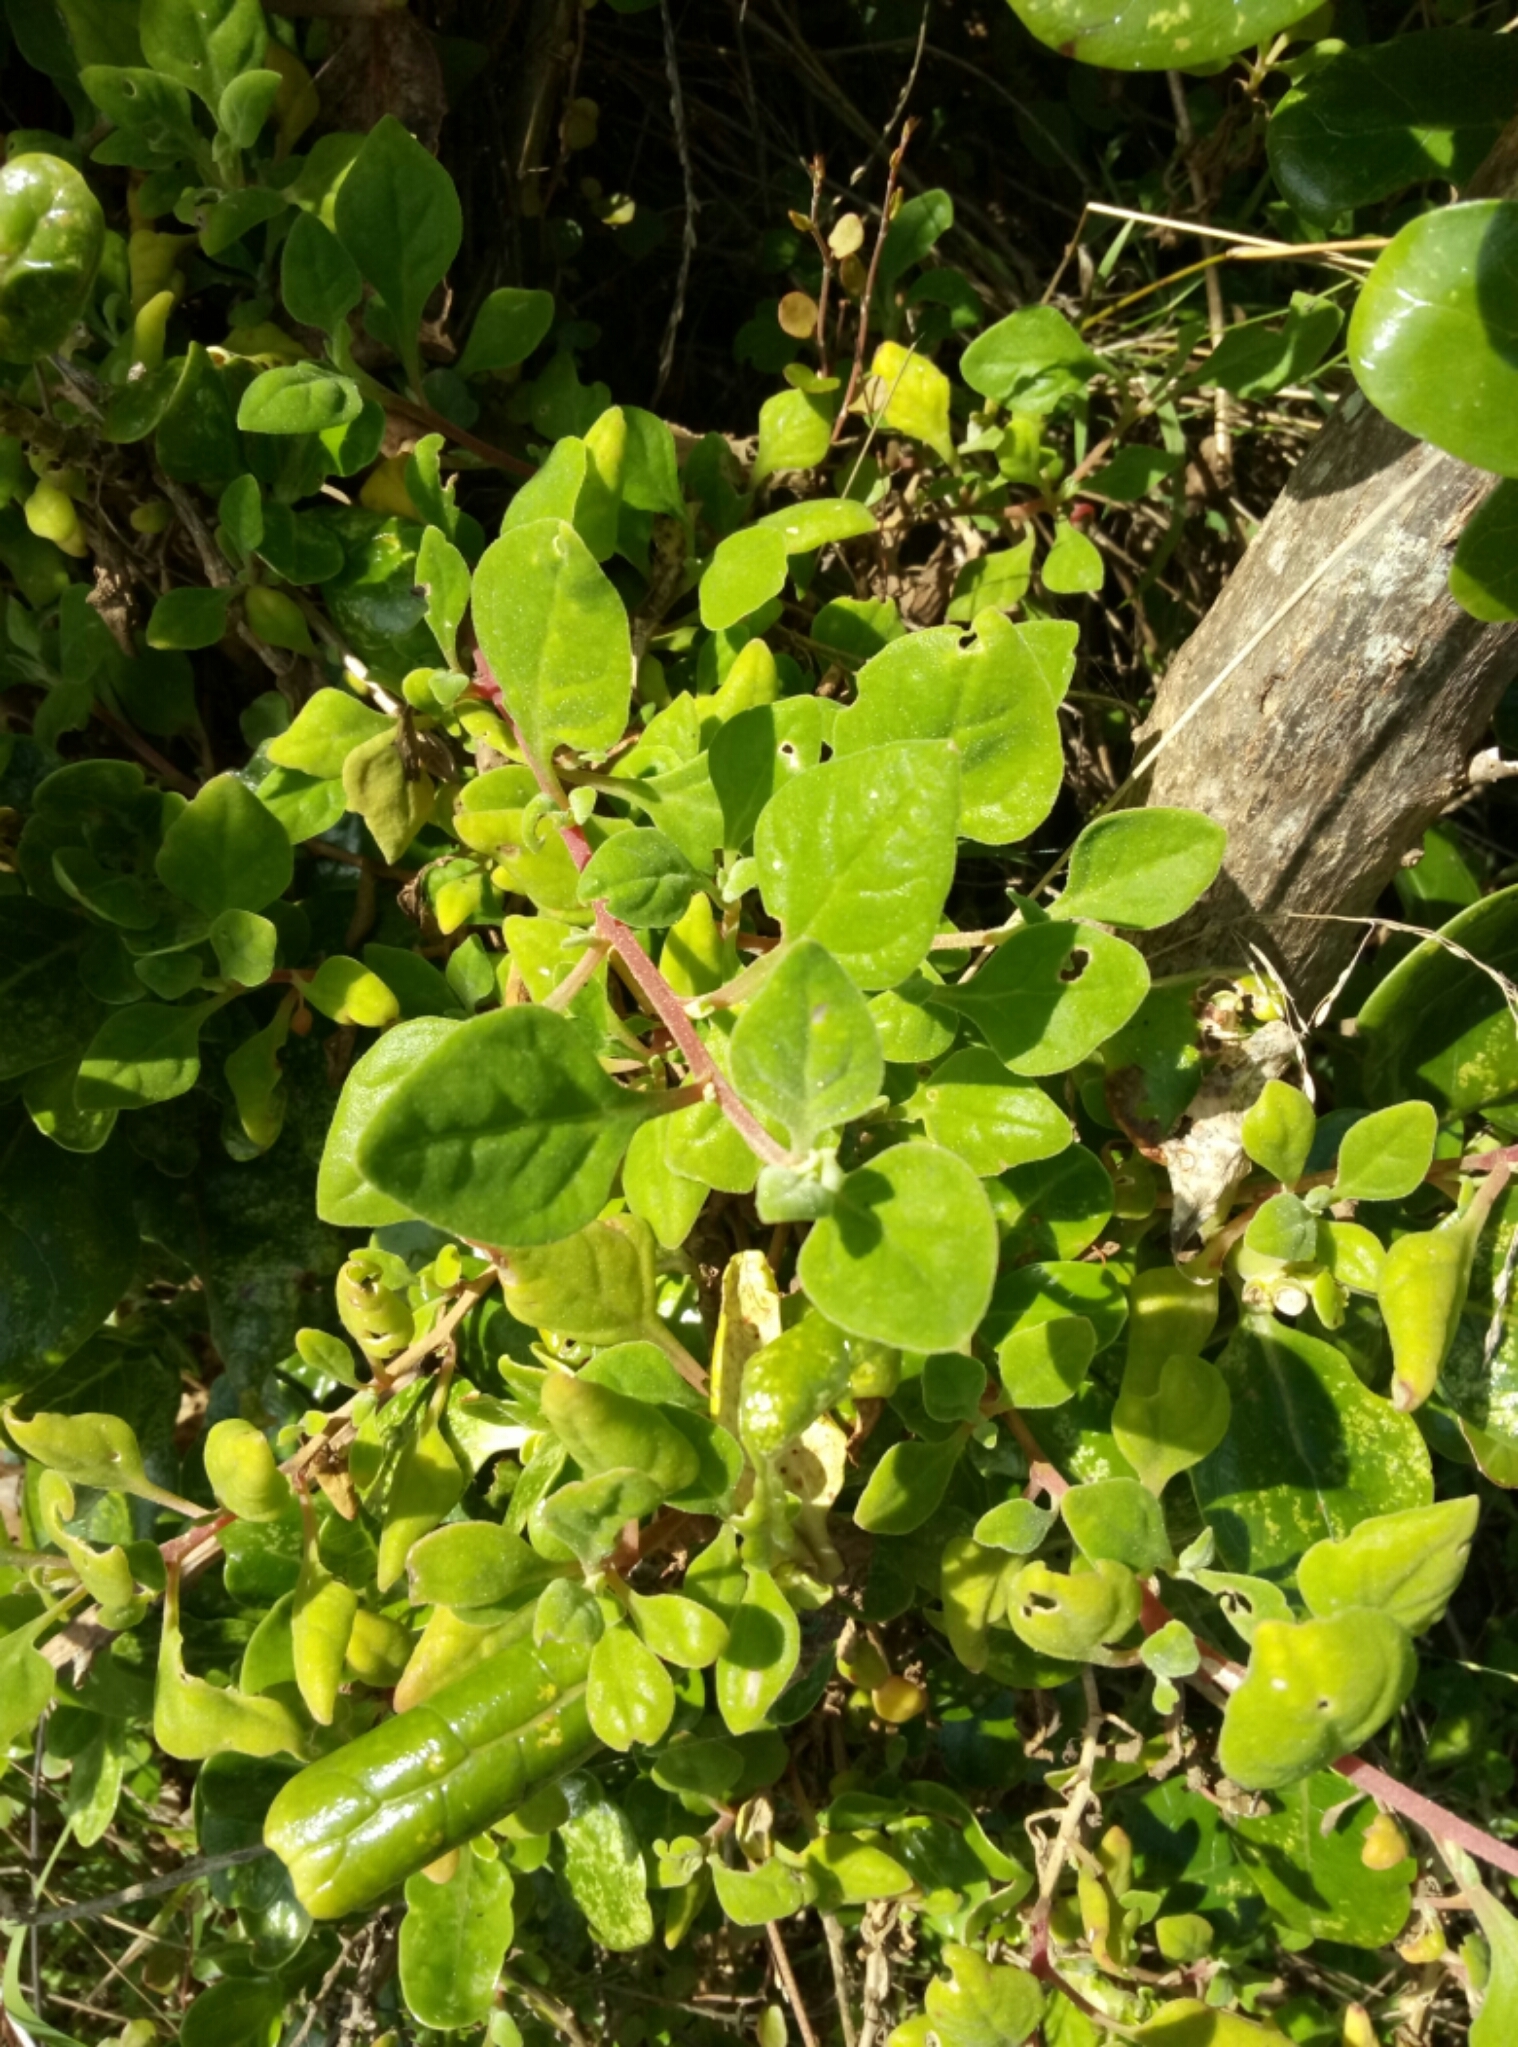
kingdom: Plantae
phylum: Tracheophyta
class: Magnoliopsida
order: Caryophyllales
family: Aizoaceae
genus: Tetragonia
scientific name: Tetragonia implexicoma
